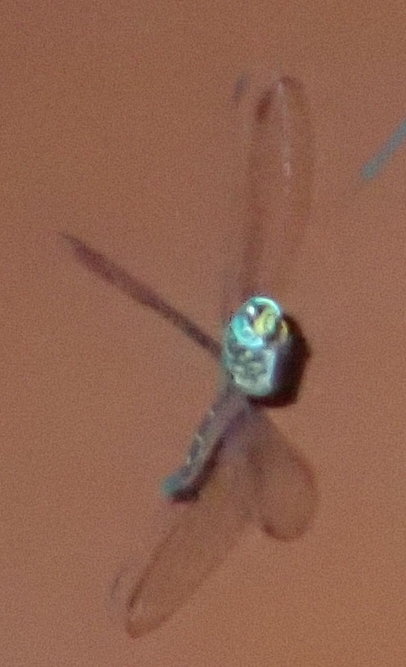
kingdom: Animalia
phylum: Arthropoda
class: Insecta
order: Odonata
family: Libellulidae
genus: Olpogastra
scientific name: Olpogastra lugubris
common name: Bottletail
